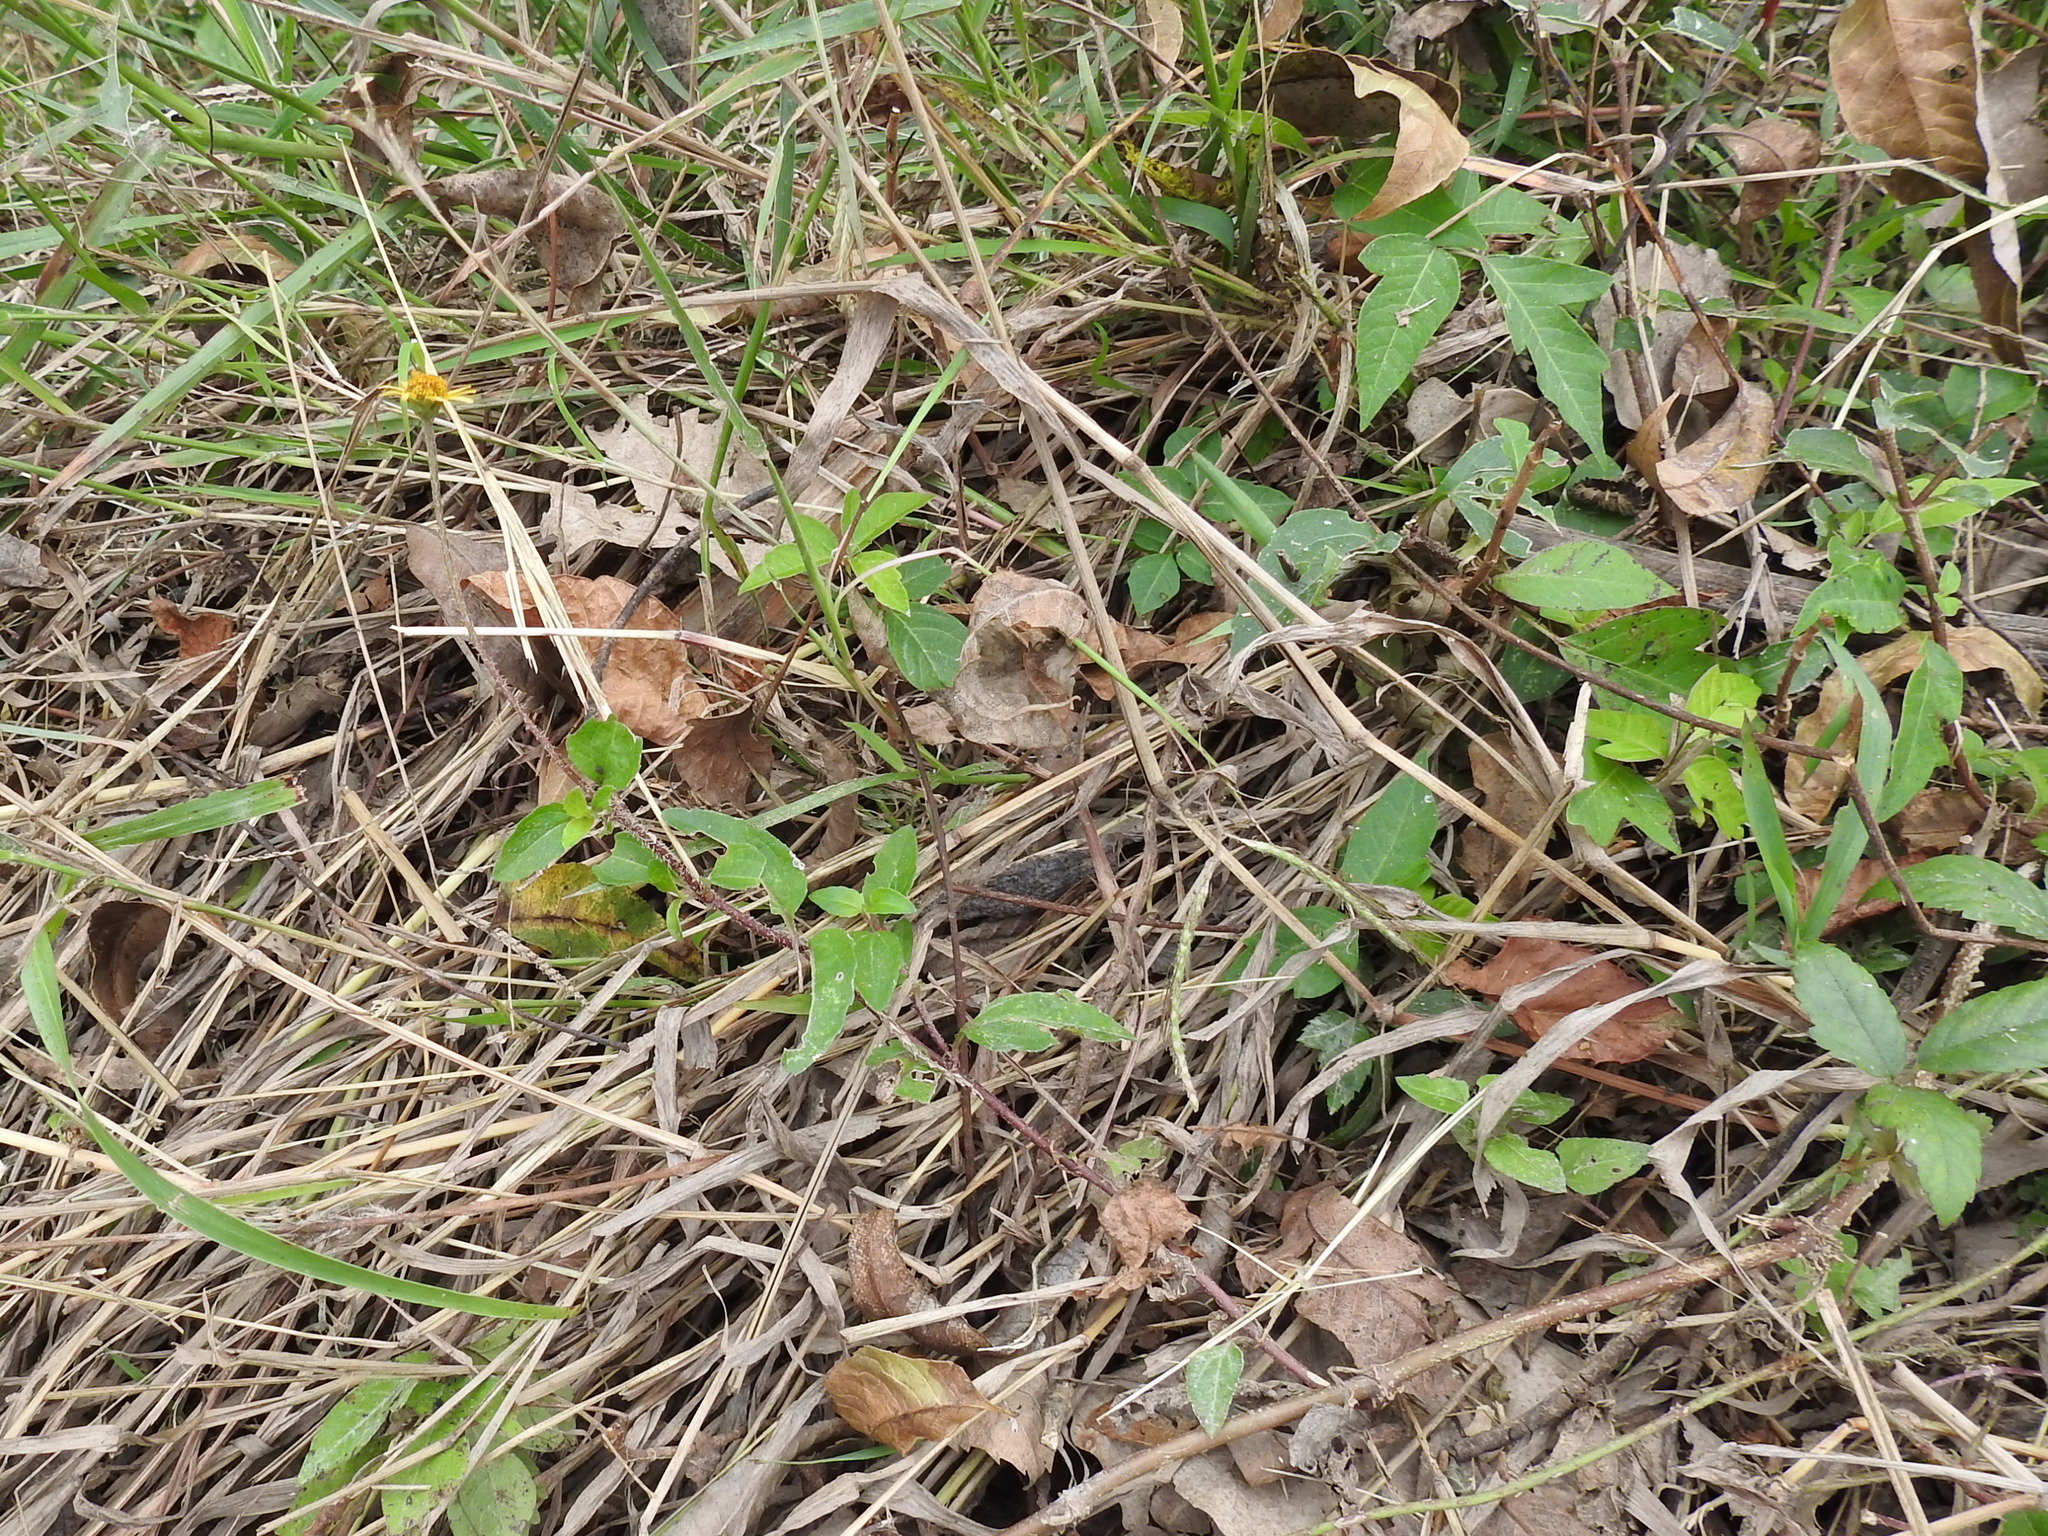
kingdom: Plantae
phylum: Tracheophyta
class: Magnoliopsida
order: Asterales
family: Asteraceae
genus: Acmella
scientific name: Acmella repens
